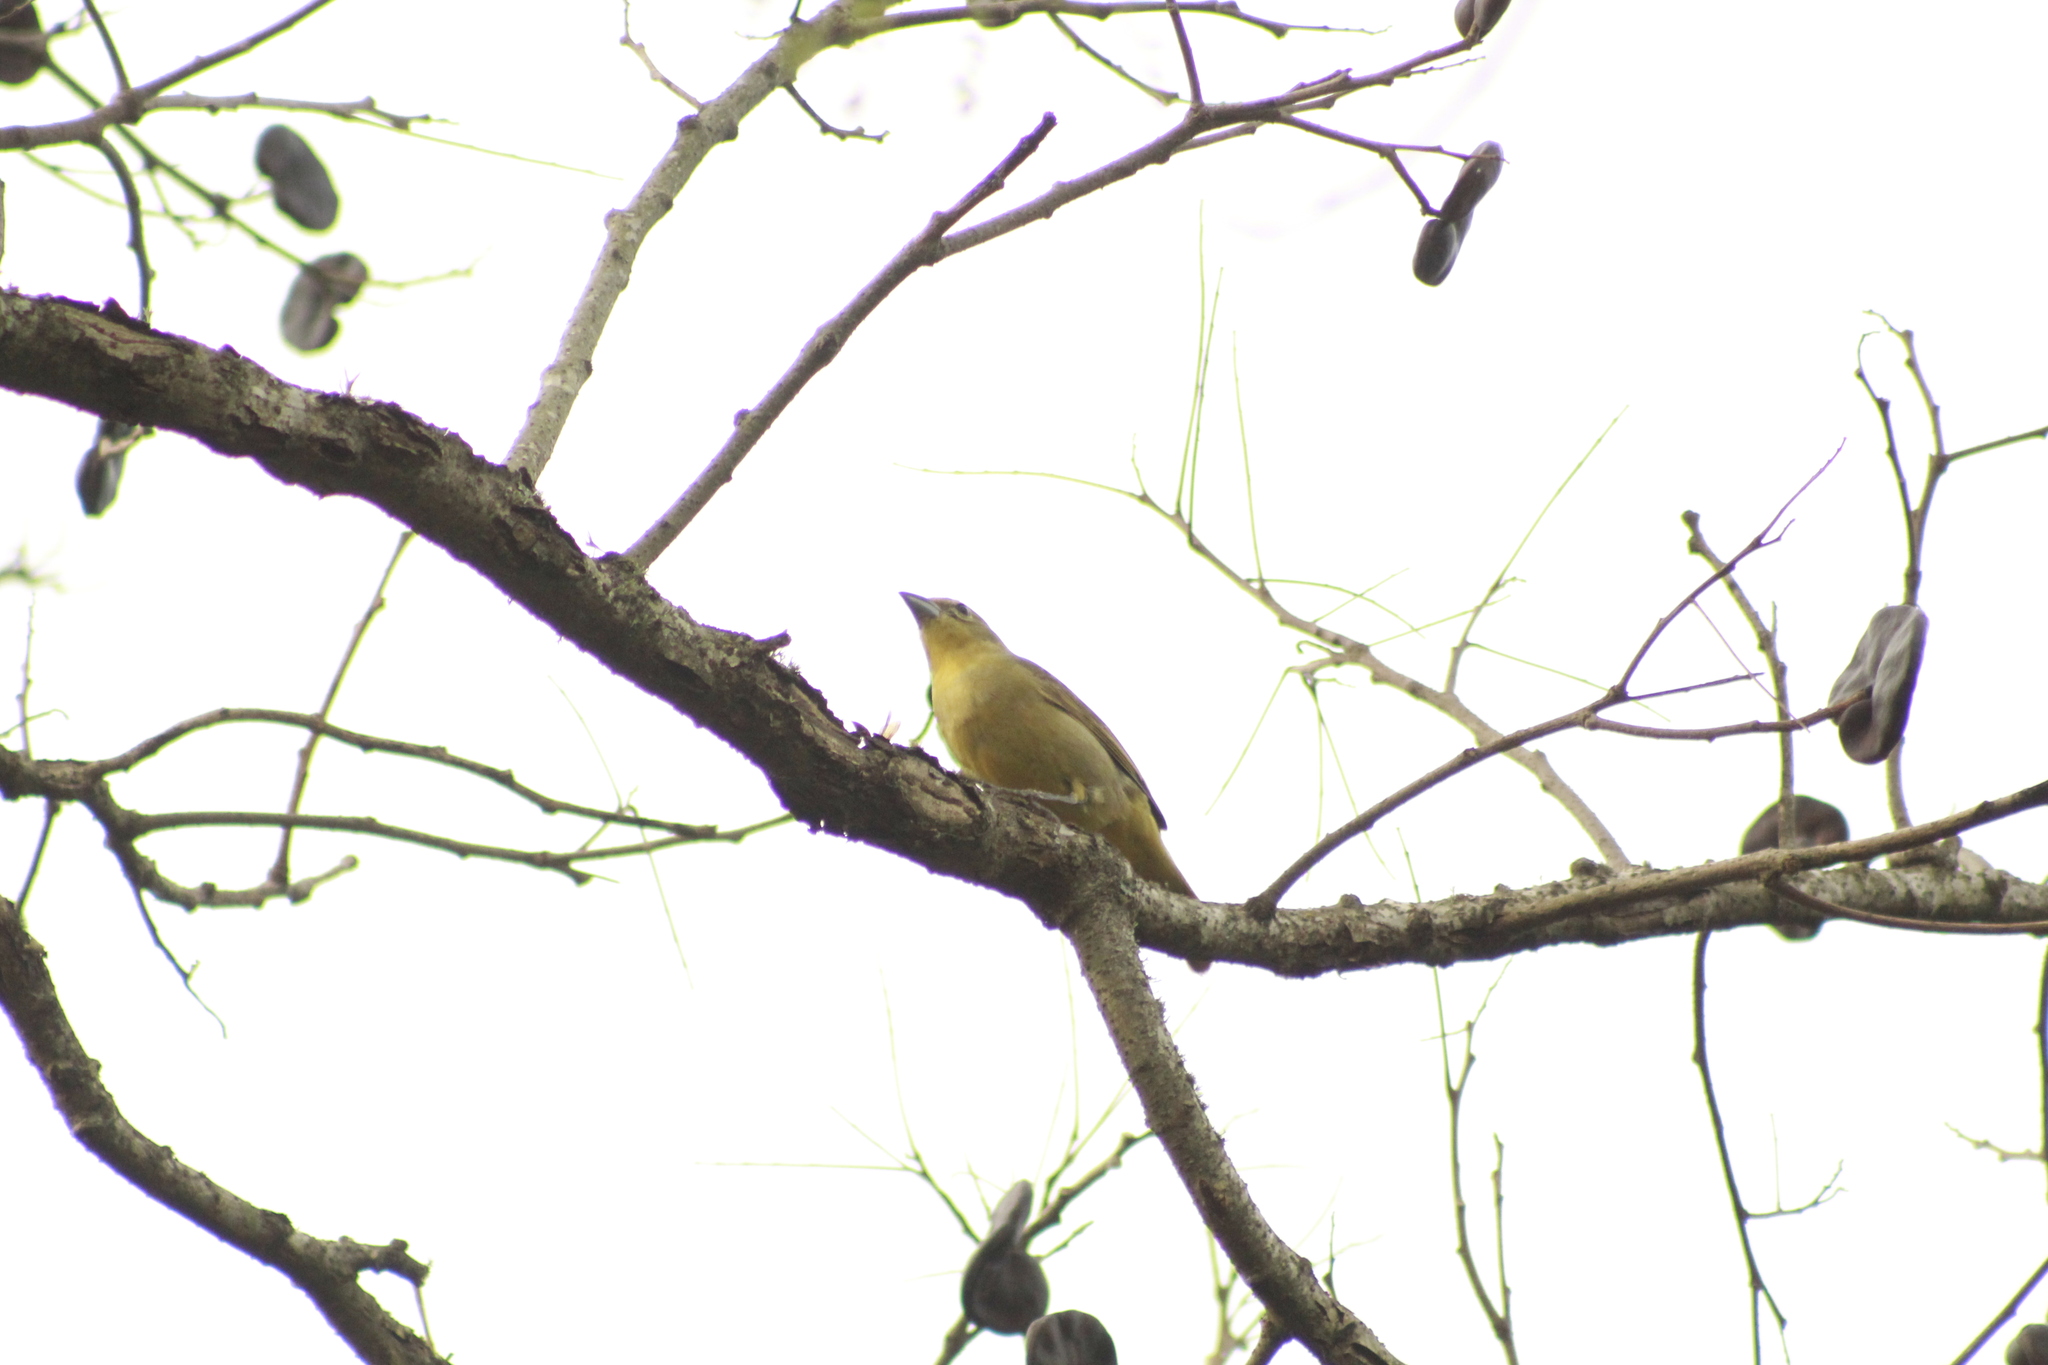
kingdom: Animalia
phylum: Chordata
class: Aves
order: Passeriformes
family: Cardinalidae
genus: Piranga
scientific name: Piranga flava
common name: Red tanager
